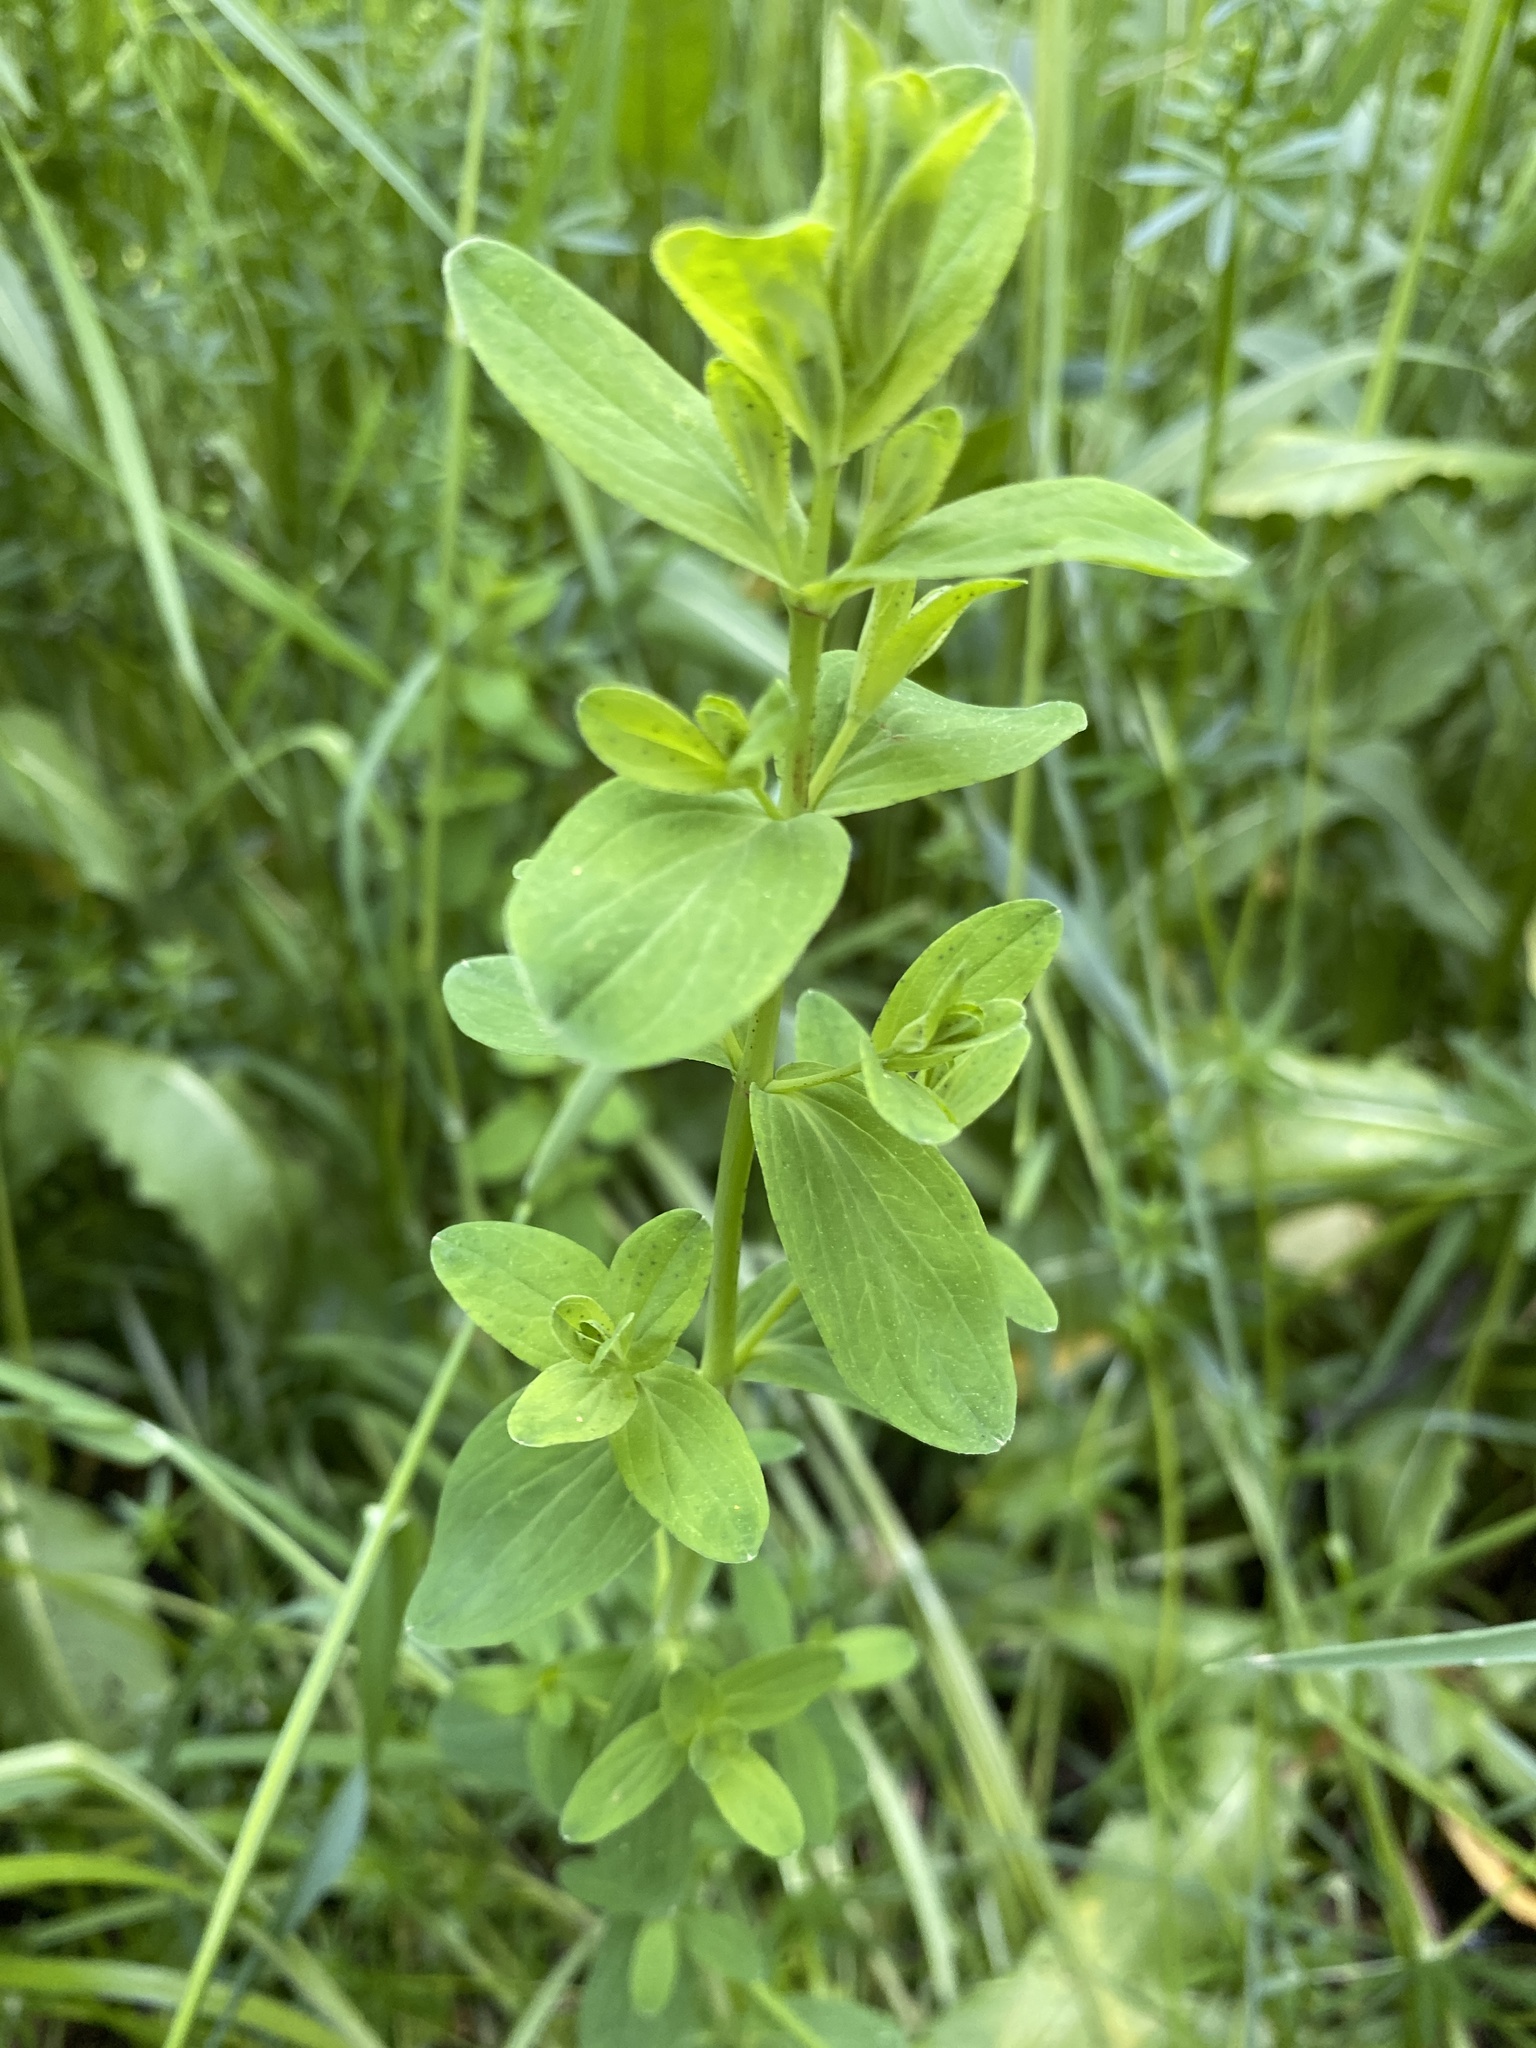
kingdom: Plantae
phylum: Tracheophyta
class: Magnoliopsida
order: Malpighiales
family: Hypericaceae
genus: Hypericum
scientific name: Hypericum perforatum
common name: Common st. johnswort
